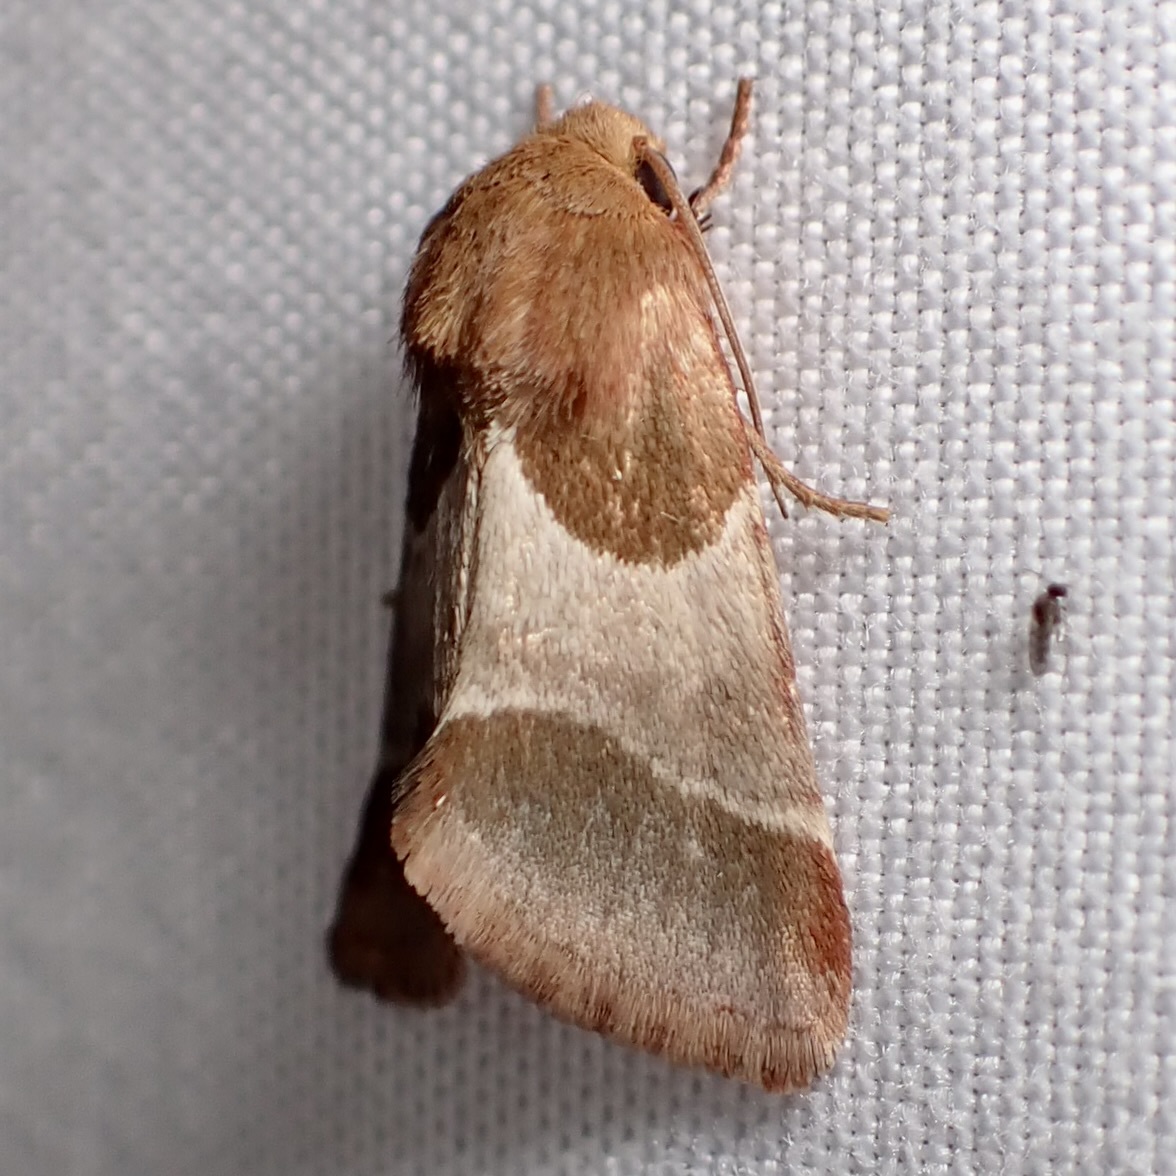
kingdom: Animalia
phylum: Arthropoda
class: Insecta
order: Lepidoptera
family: Noctuidae
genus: Schinia
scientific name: Schinia arcigera
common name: Arcigera flower moth
